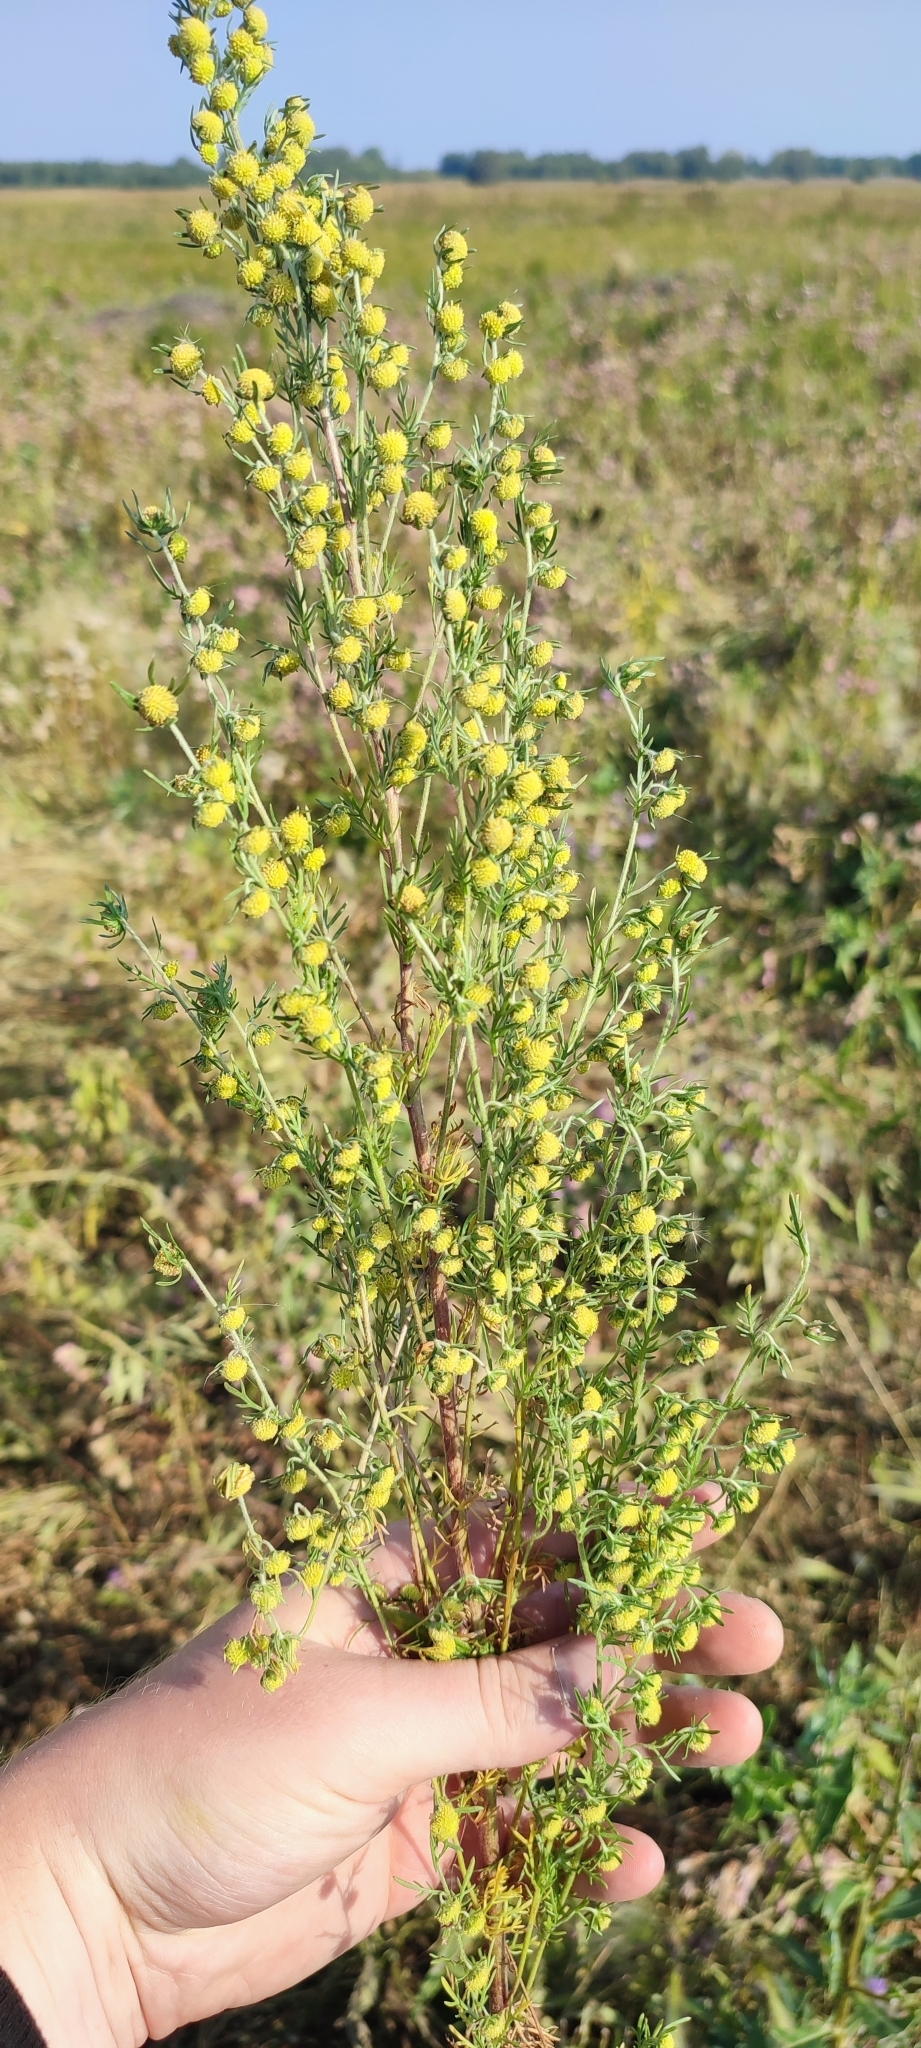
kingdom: Plantae
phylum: Tracheophyta
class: Magnoliopsida
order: Asterales
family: Asteraceae
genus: Artemisia
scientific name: Artemisia macrantha
